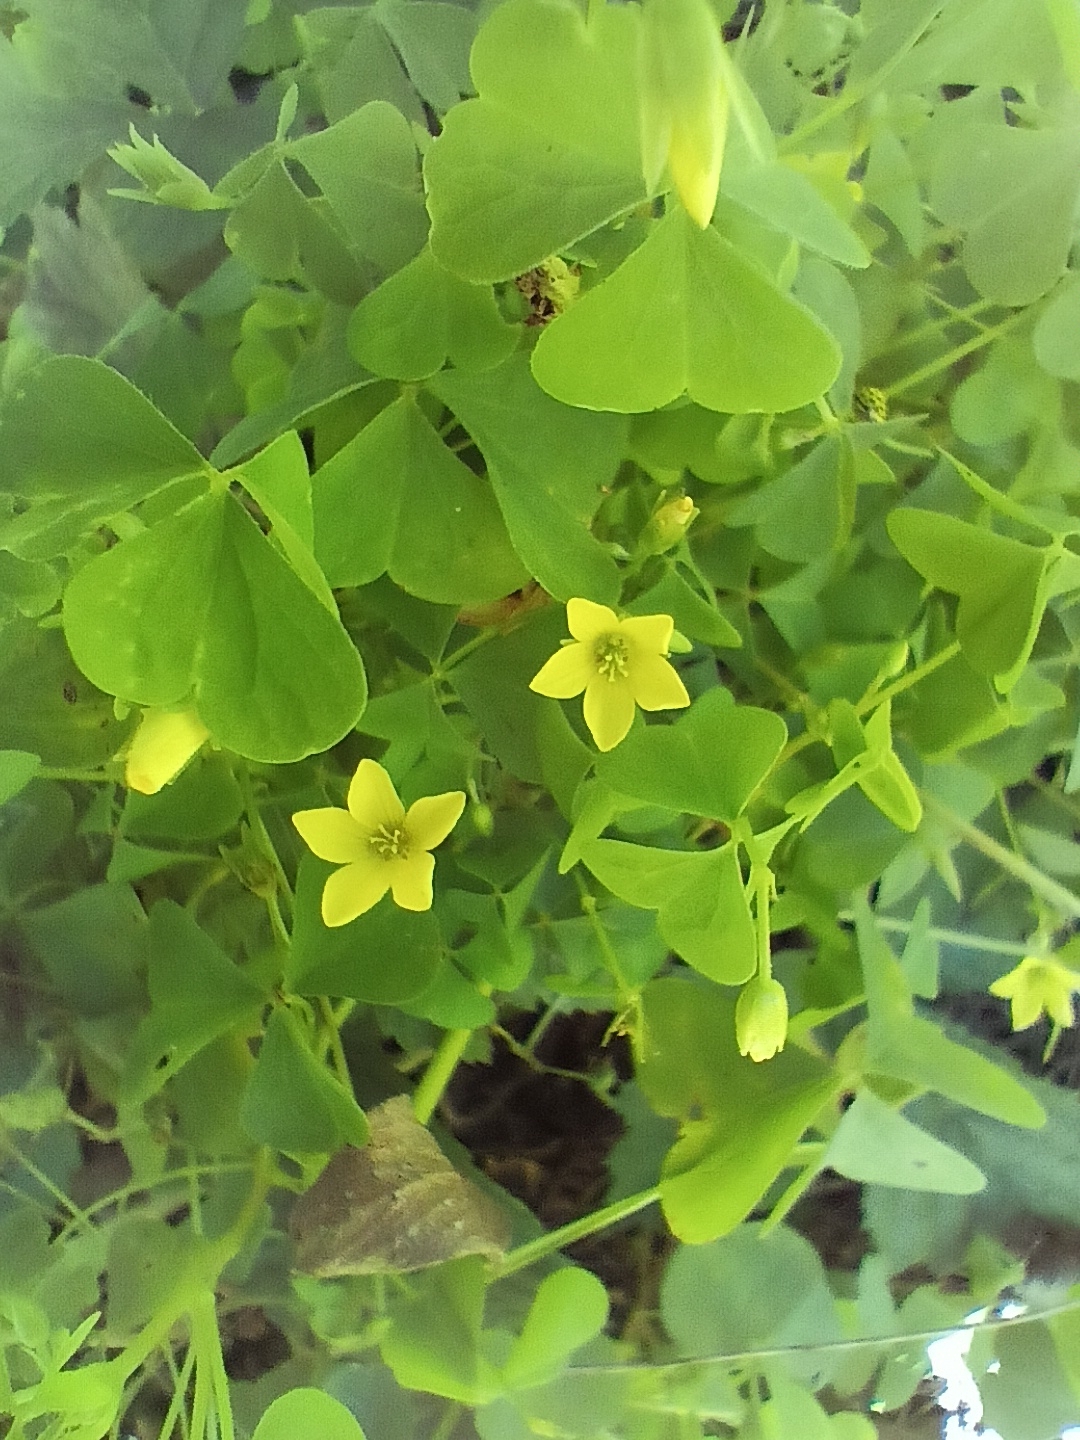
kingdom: Plantae
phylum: Tracheophyta
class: Magnoliopsida
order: Oxalidales
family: Oxalidaceae
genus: Oxalis
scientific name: Oxalis stricta
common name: Upright yellow-sorrel
